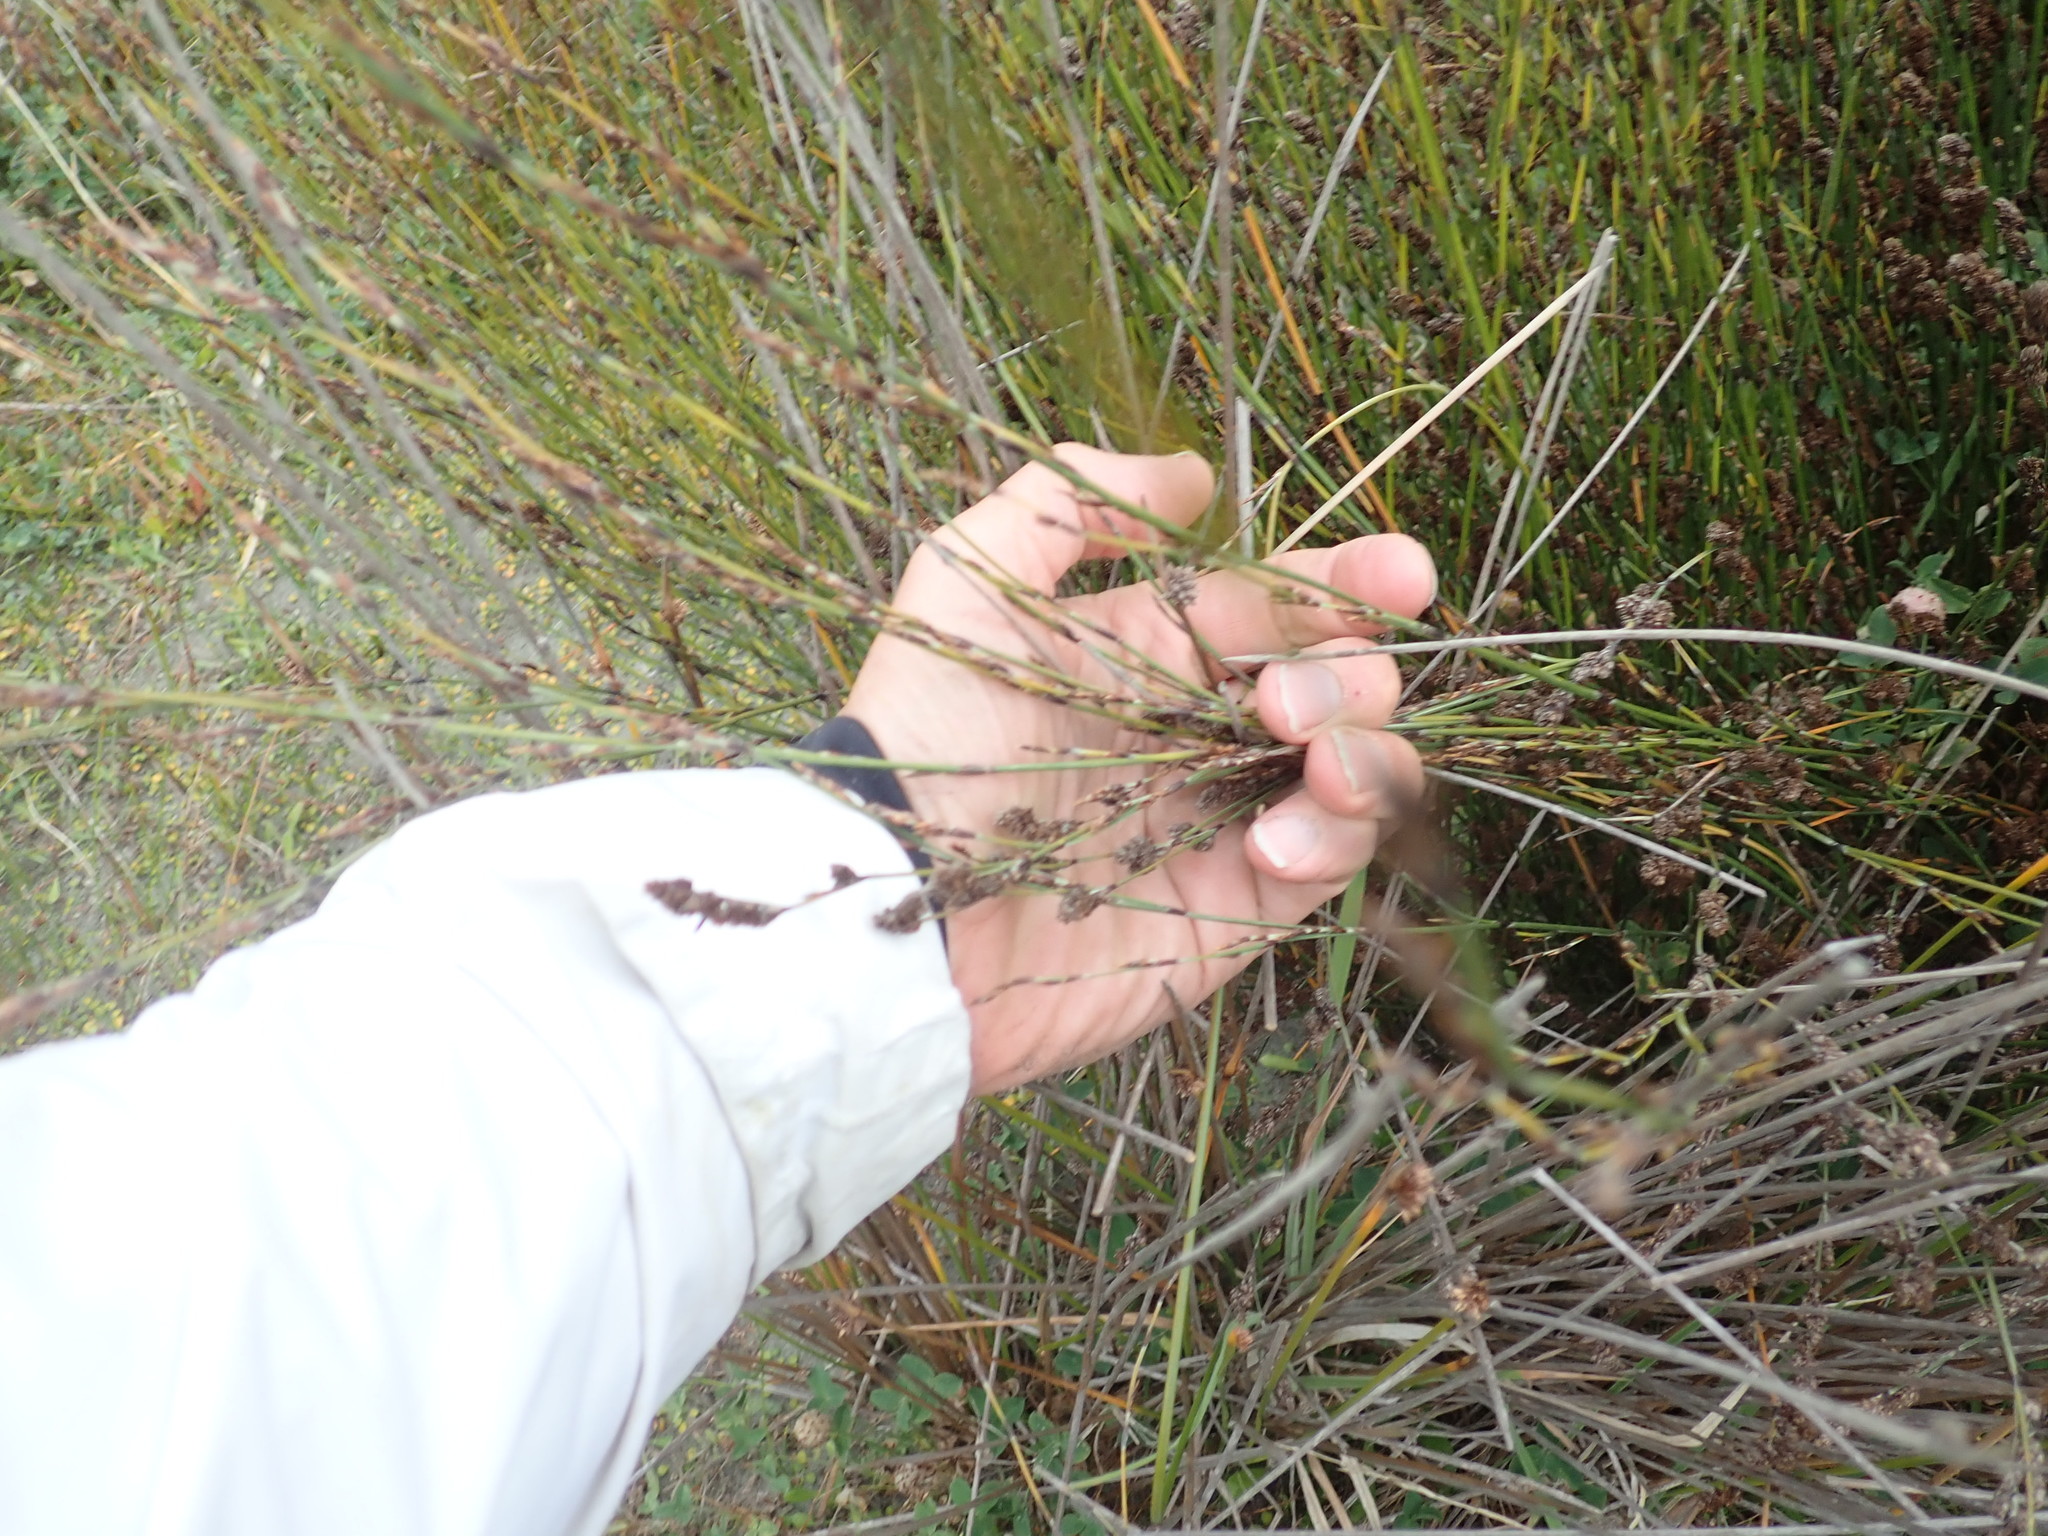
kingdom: Plantae
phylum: Tracheophyta
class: Liliopsida
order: Poales
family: Restionaceae
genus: Apodasmia
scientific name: Apodasmia similis
